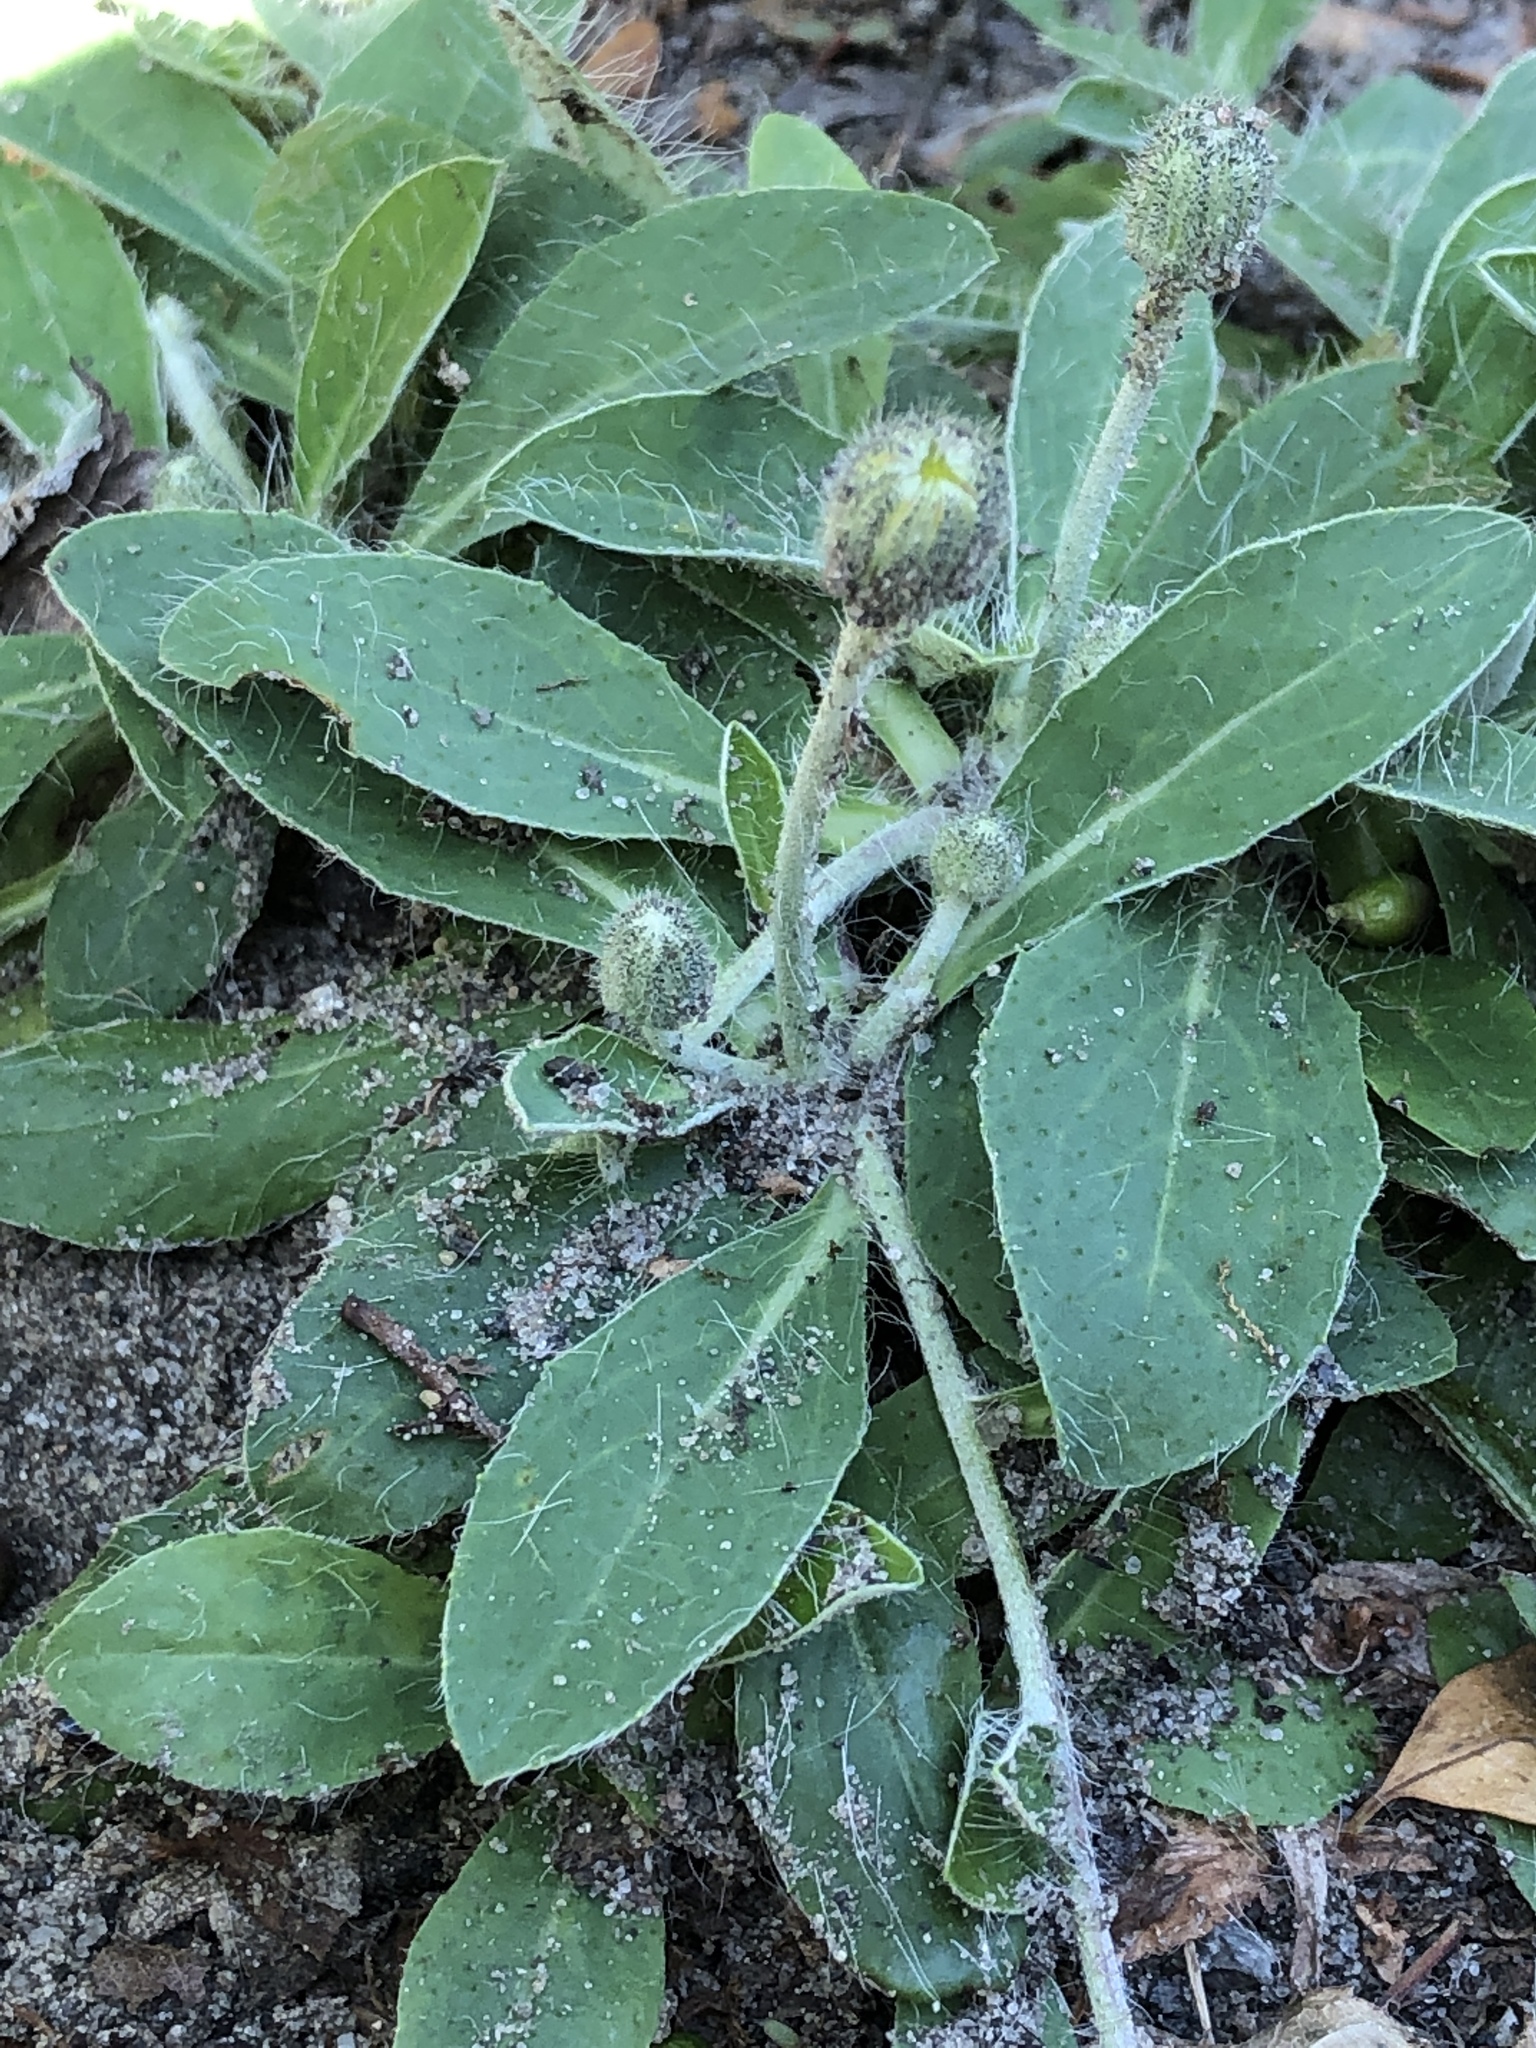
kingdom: Plantae
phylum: Tracheophyta
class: Magnoliopsida
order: Asterales
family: Asteraceae
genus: Pilosella
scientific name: Pilosella officinarum
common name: Mouse-ear hawkweed
